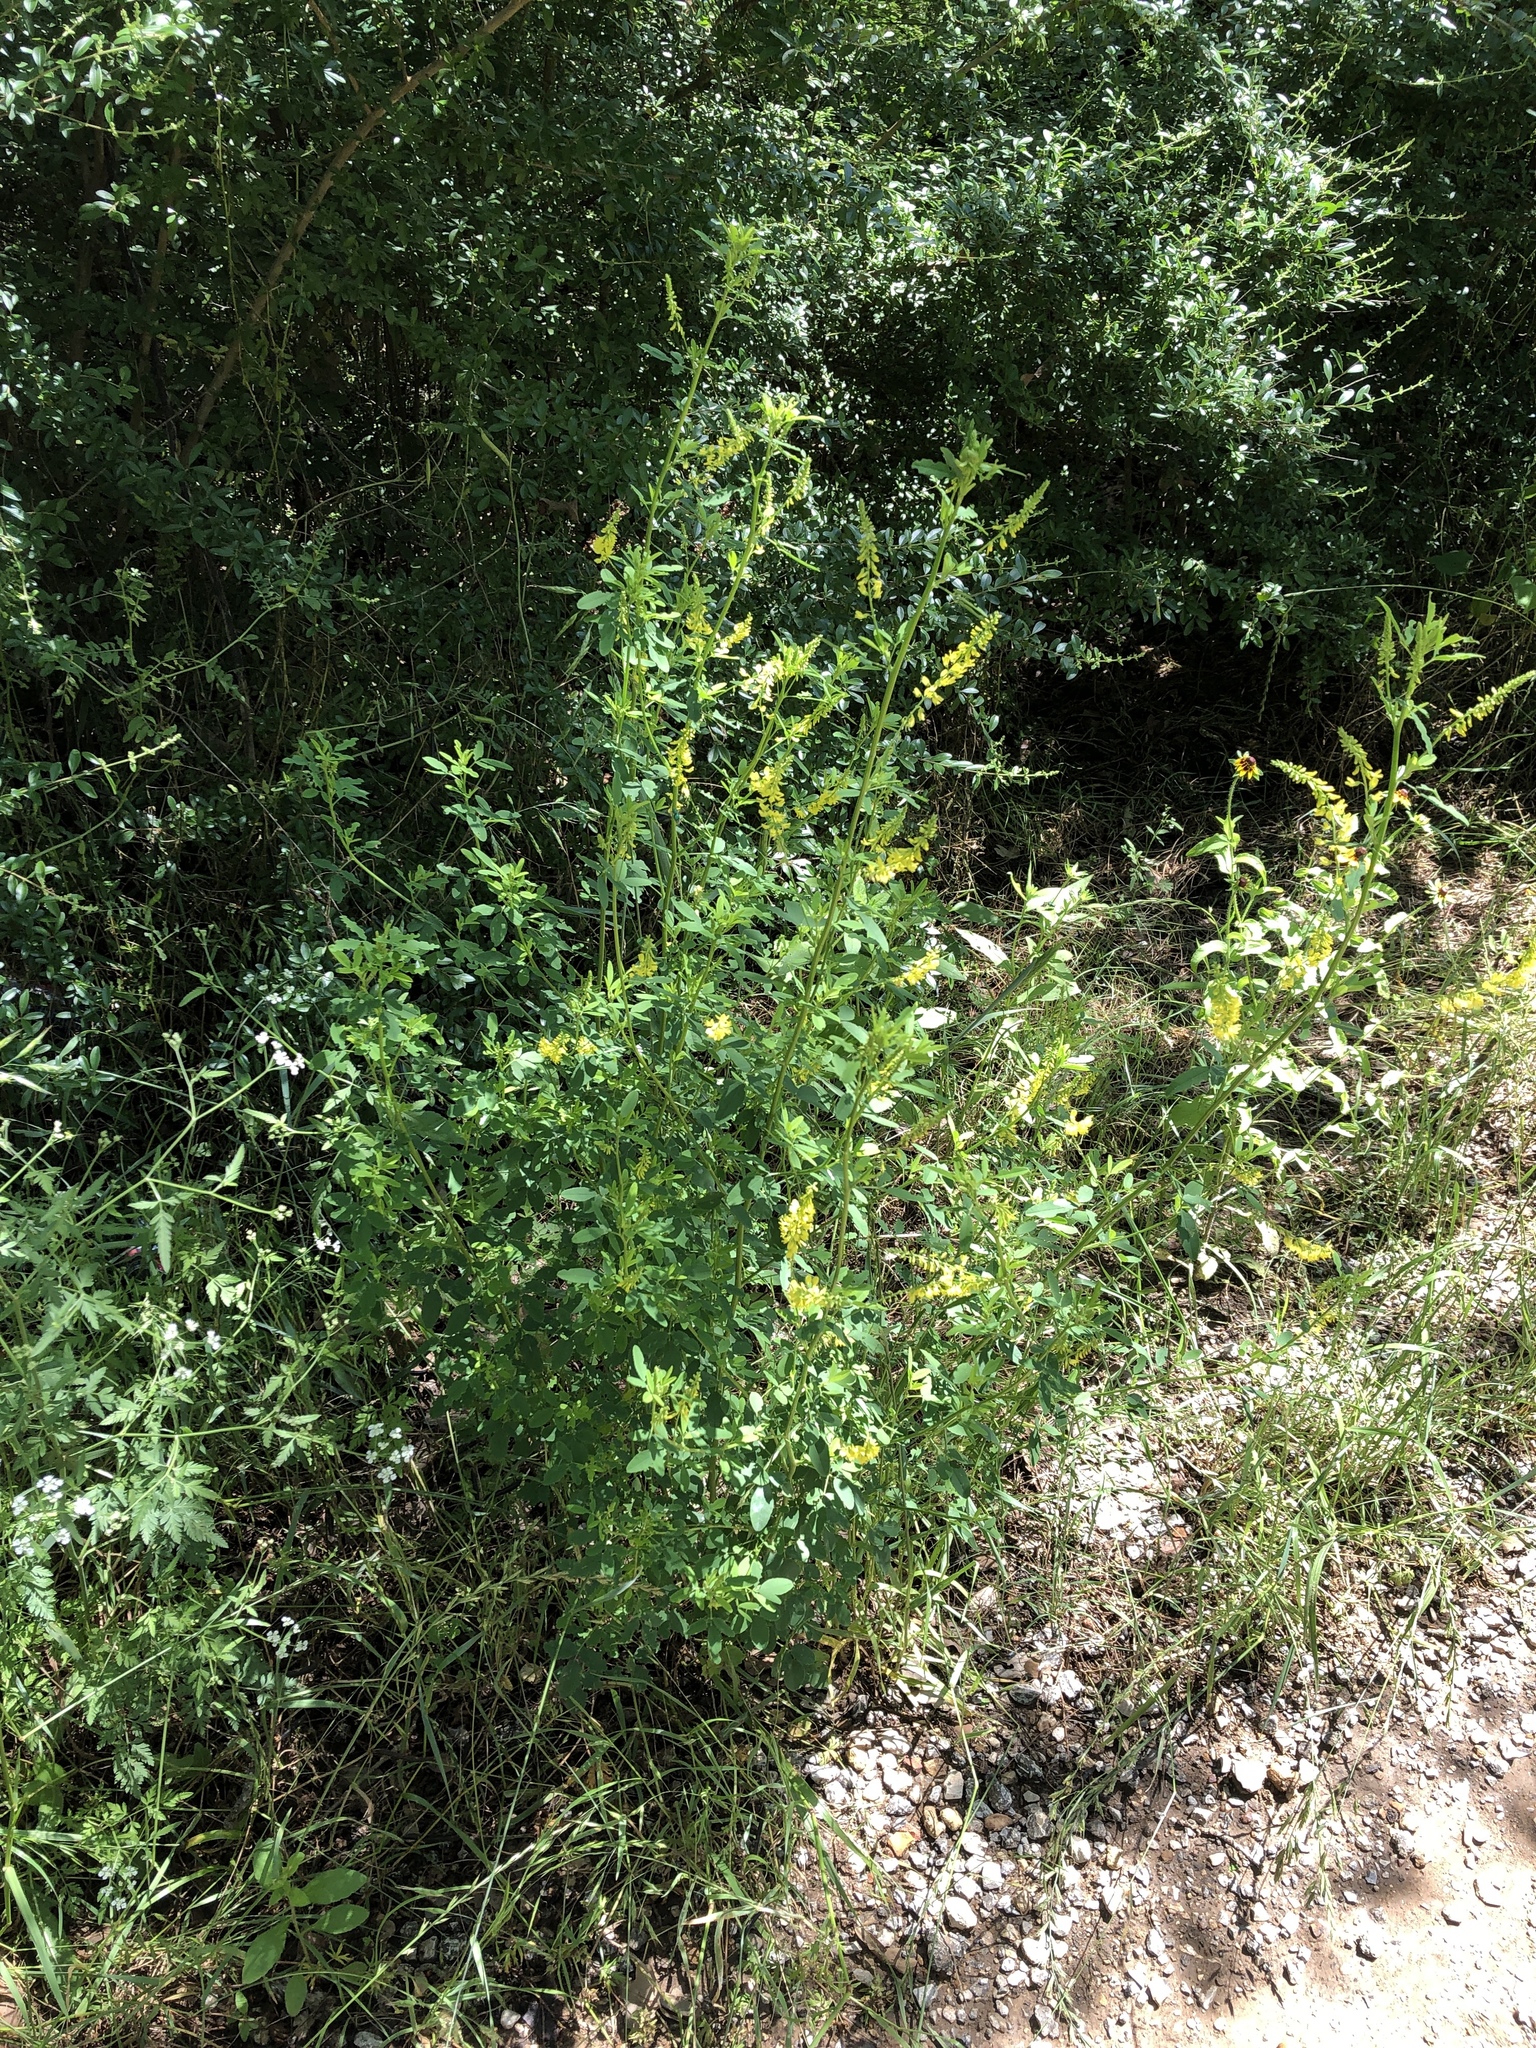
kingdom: Plantae
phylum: Tracheophyta
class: Magnoliopsida
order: Fabales
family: Fabaceae
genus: Melilotus
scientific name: Melilotus officinalis
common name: Sweetclover
